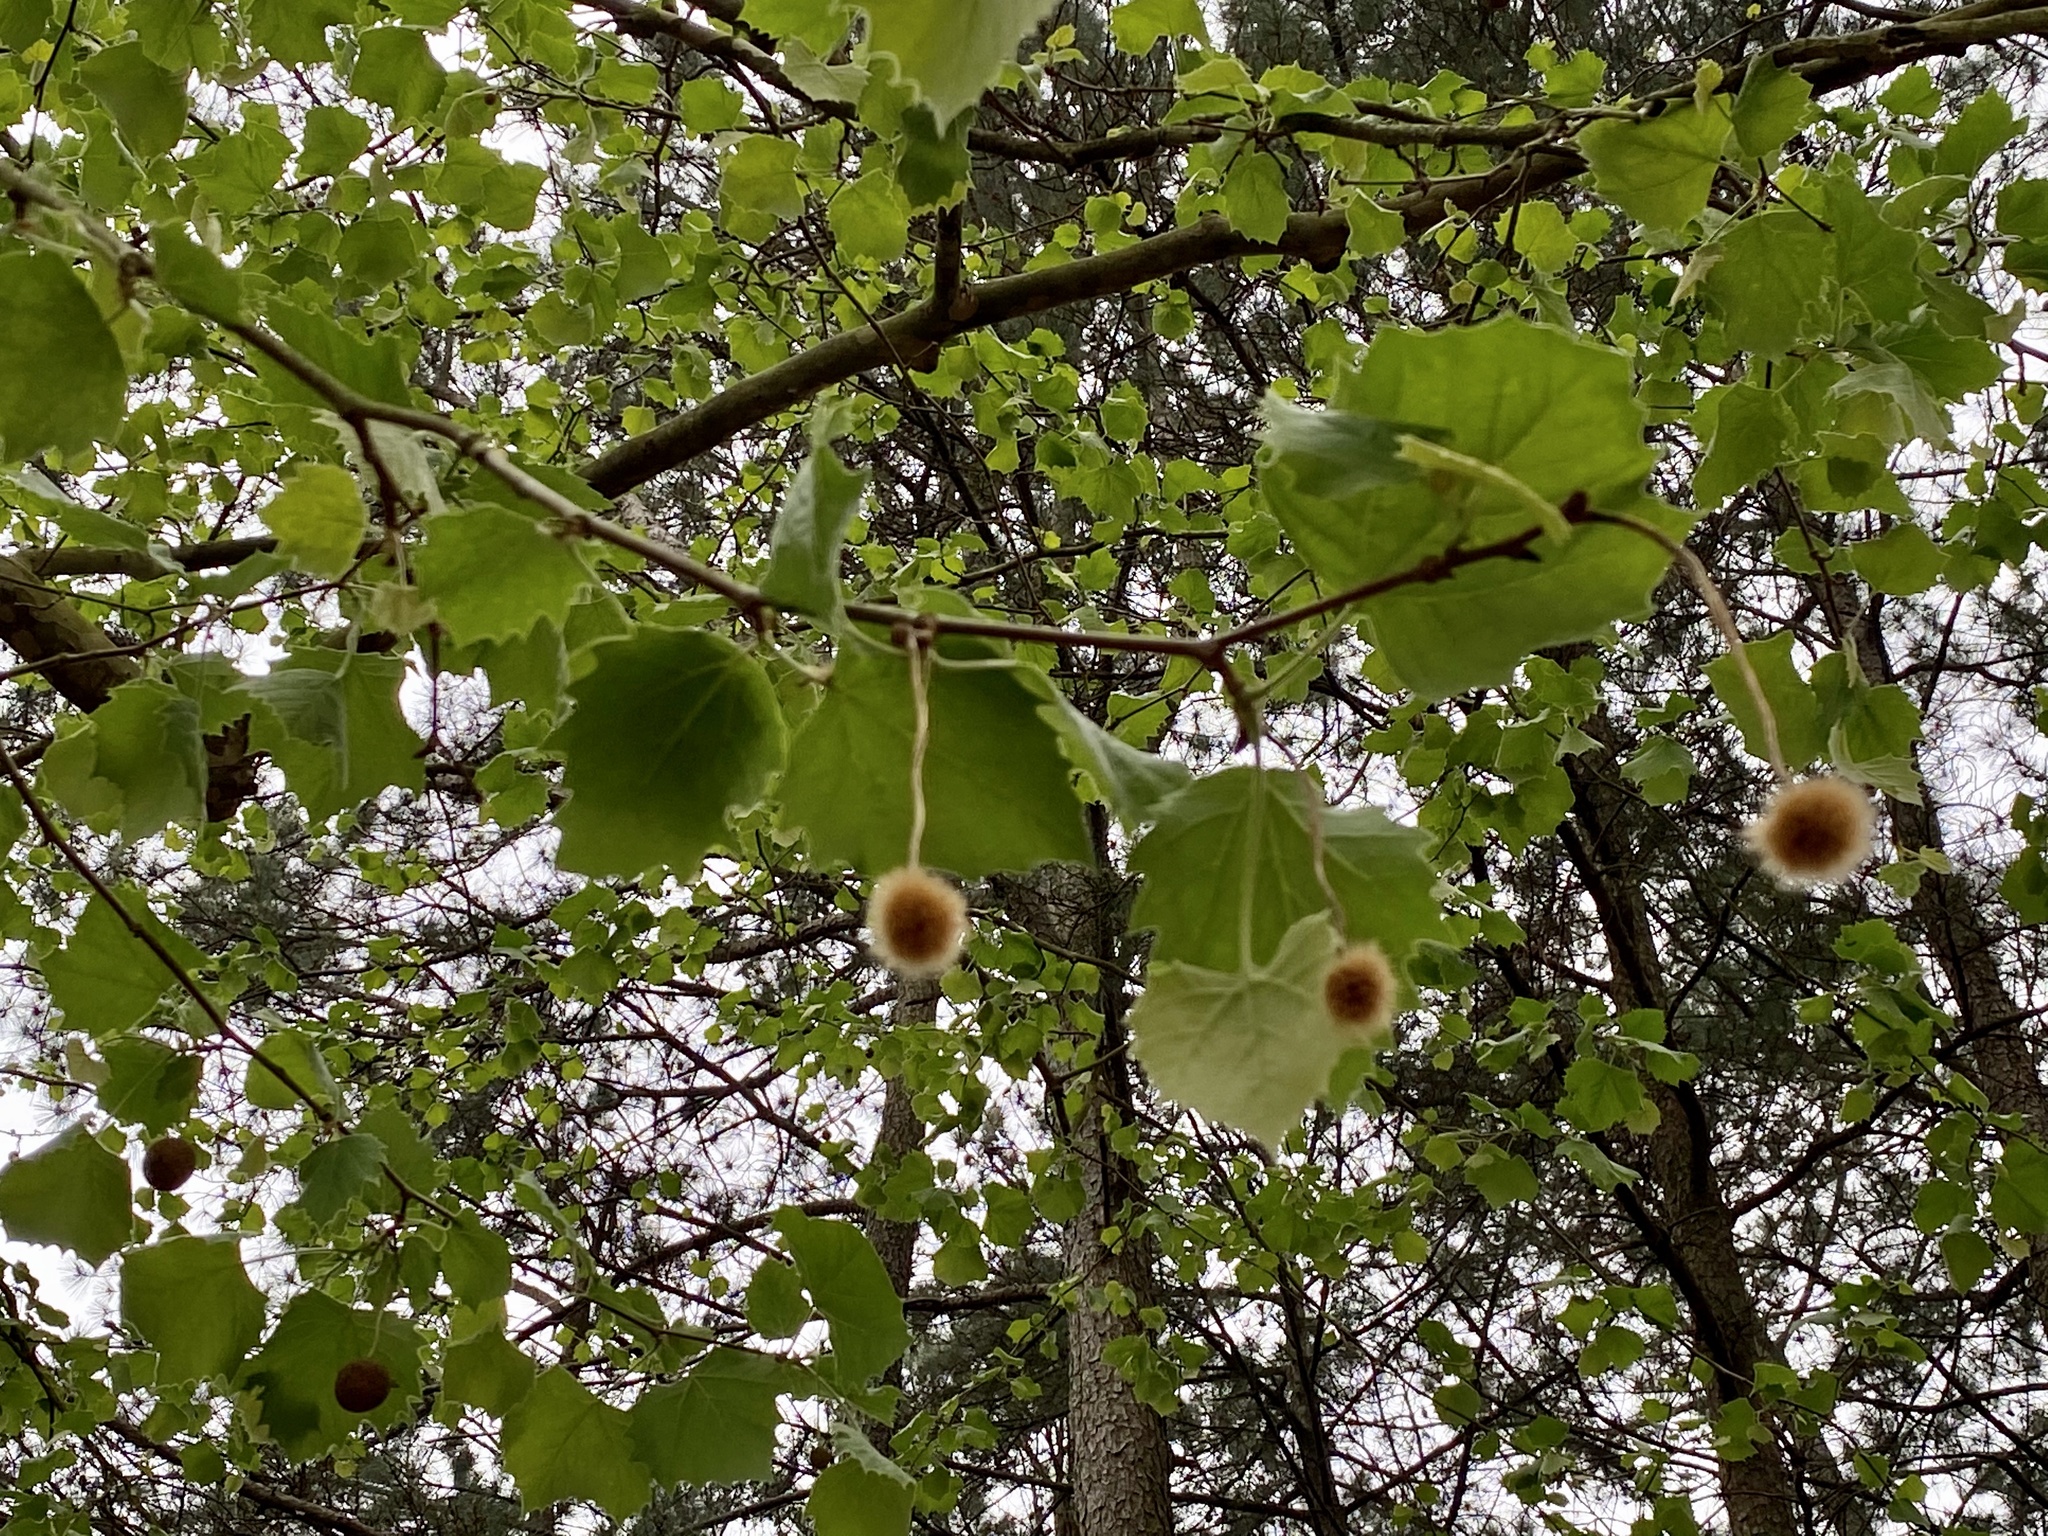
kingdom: Plantae
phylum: Tracheophyta
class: Magnoliopsida
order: Proteales
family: Platanaceae
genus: Platanus
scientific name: Platanus occidentalis
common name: American sycamore
